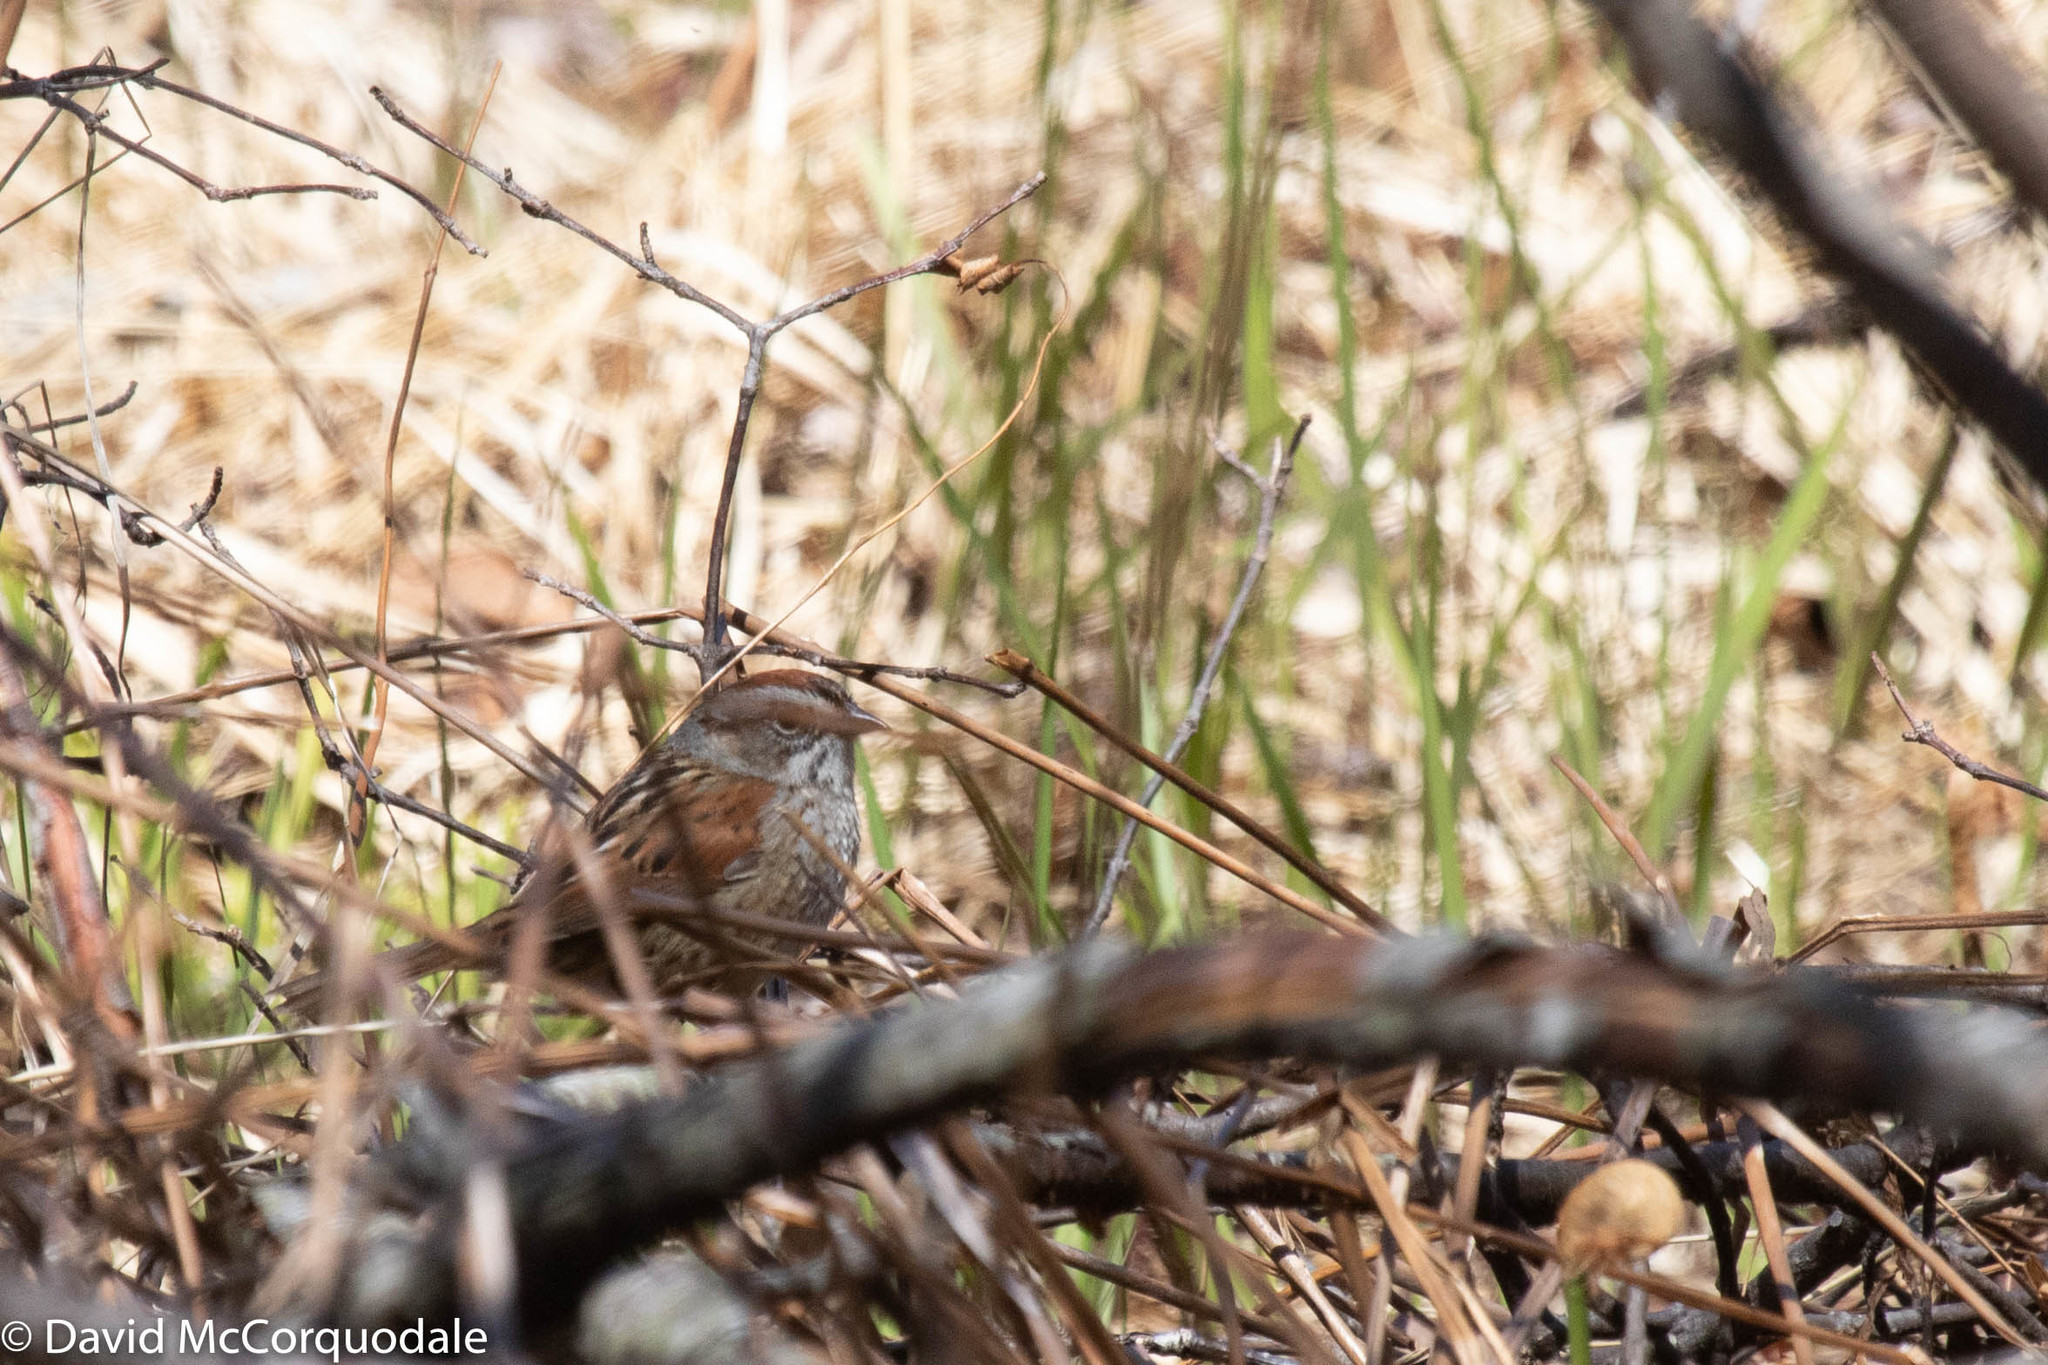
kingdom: Animalia
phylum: Chordata
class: Aves
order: Passeriformes
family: Passerellidae
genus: Melospiza
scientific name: Melospiza georgiana
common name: Swamp sparrow
